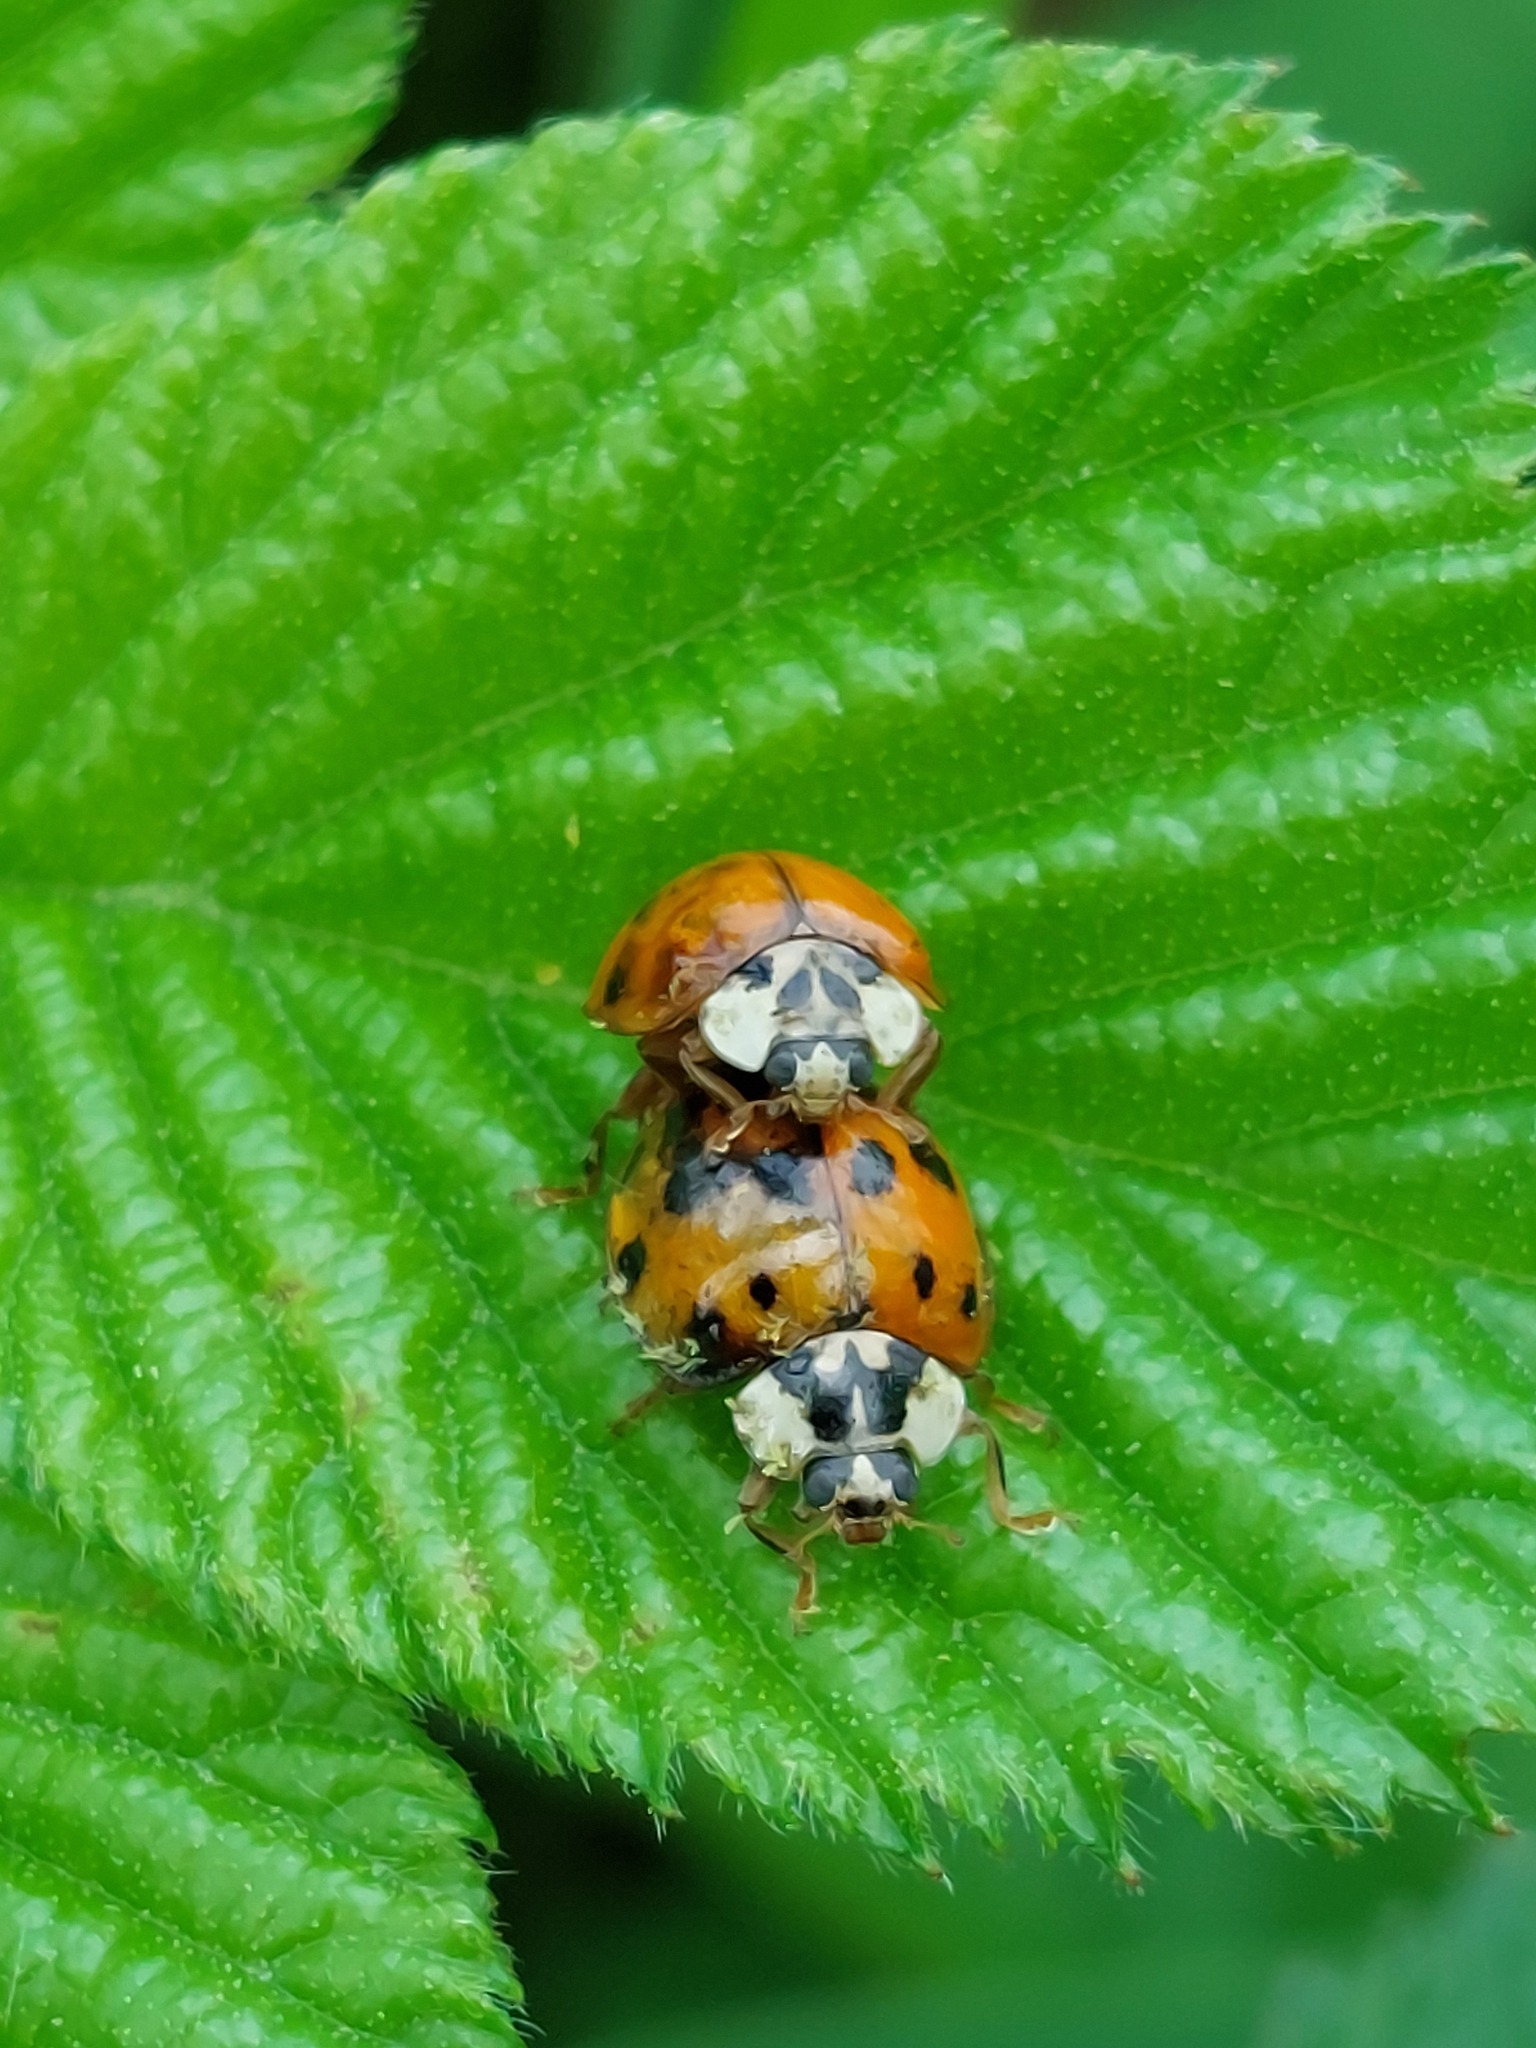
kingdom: Animalia
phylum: Arthropoda
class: Insecta
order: Coleoptera
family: Coccinellidae
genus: Harmonia
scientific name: Harmonia axyridis
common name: Harlequin ladybird
